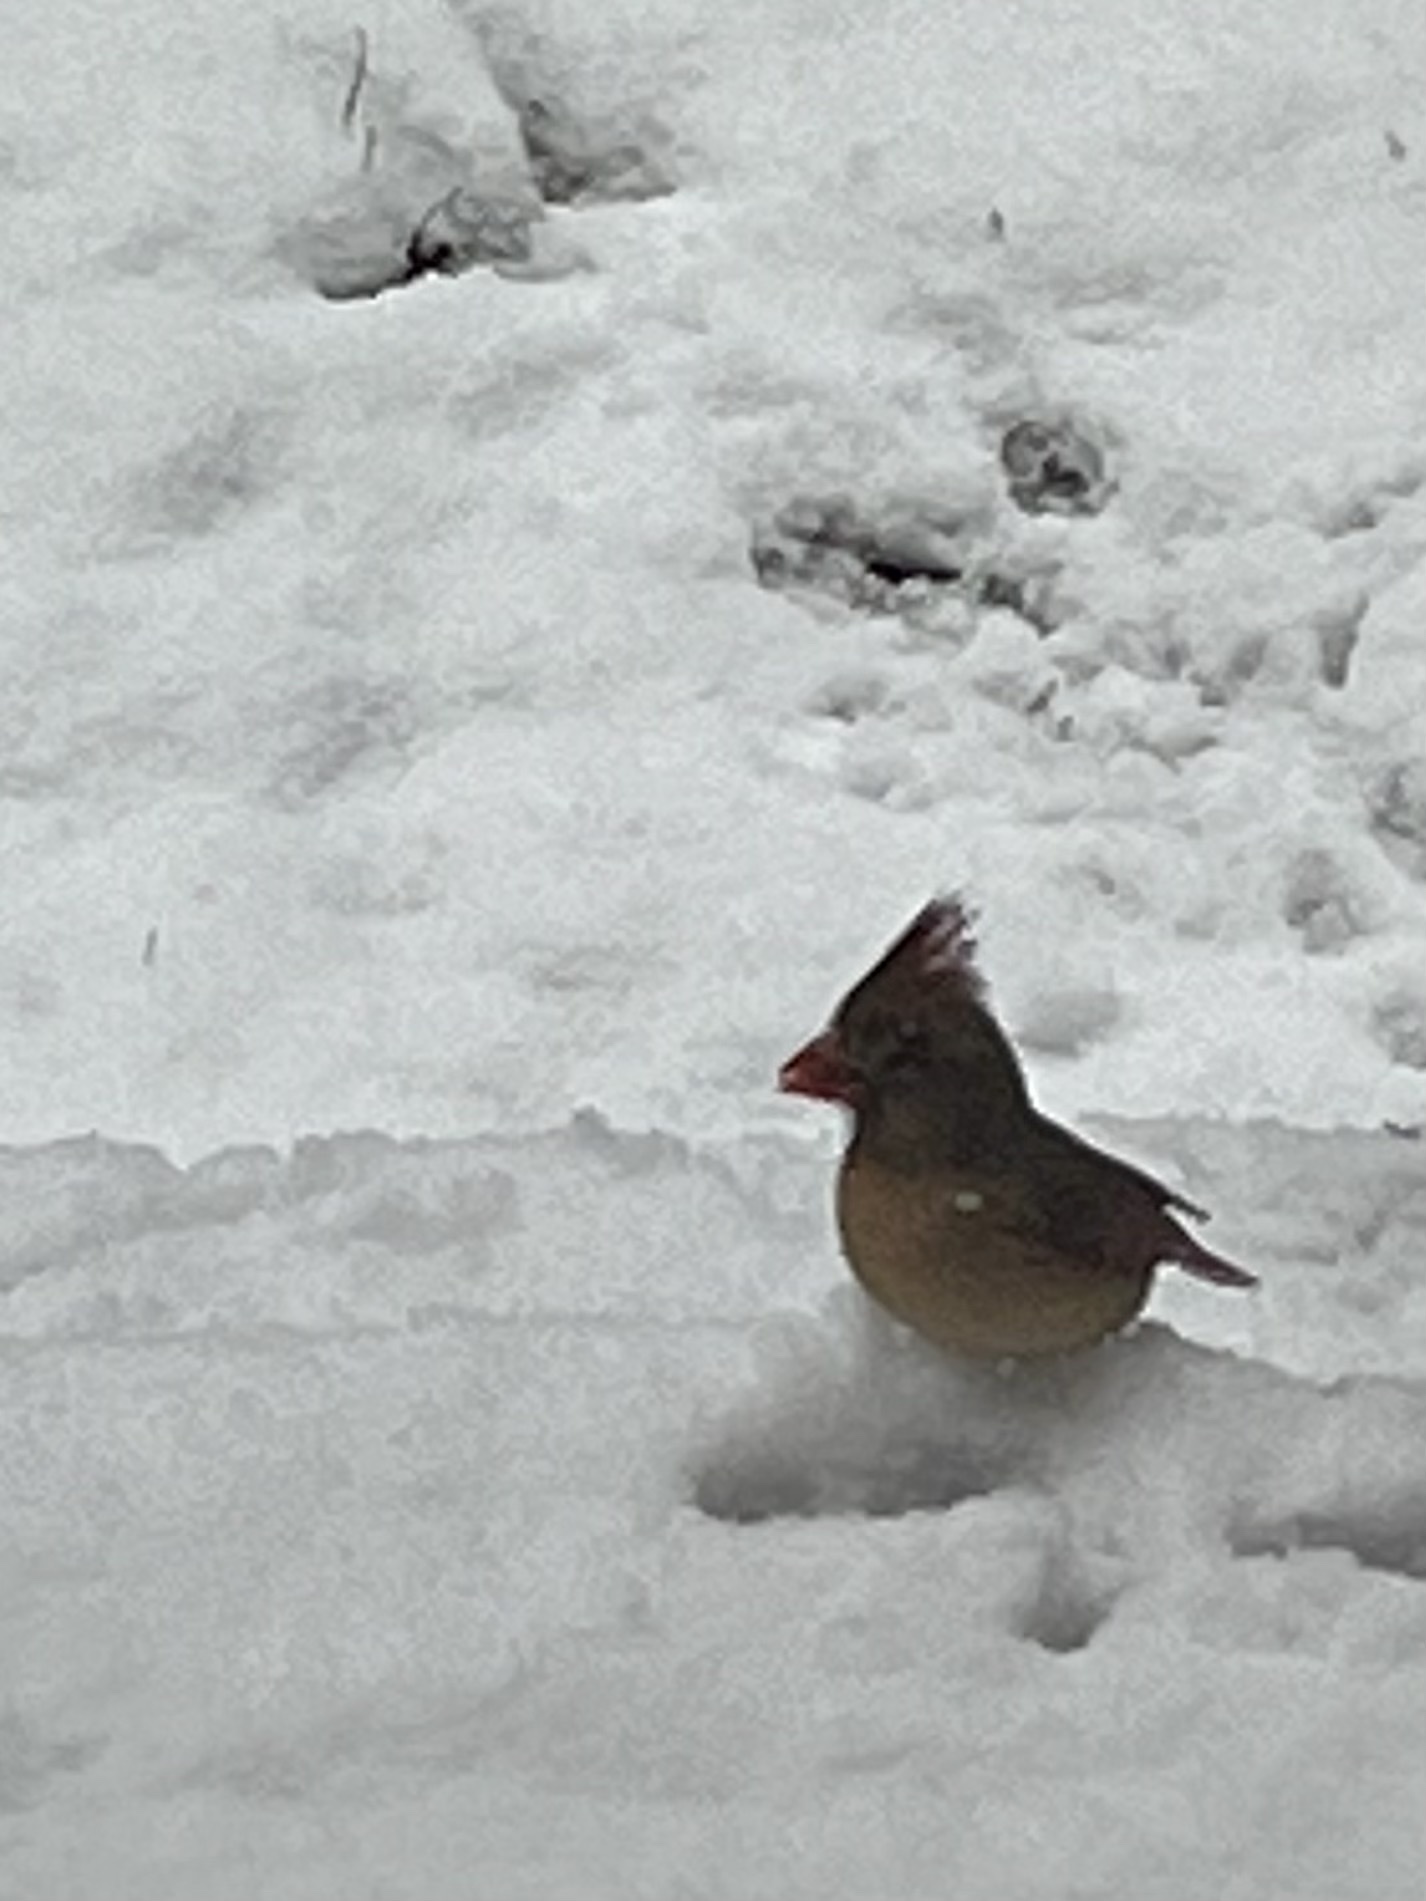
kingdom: Animalia
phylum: Chordata
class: Aves
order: Passeriformes
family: Cardinalidae
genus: Cardinalis
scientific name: Cardinalis cardinalis
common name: Northern cardinal
